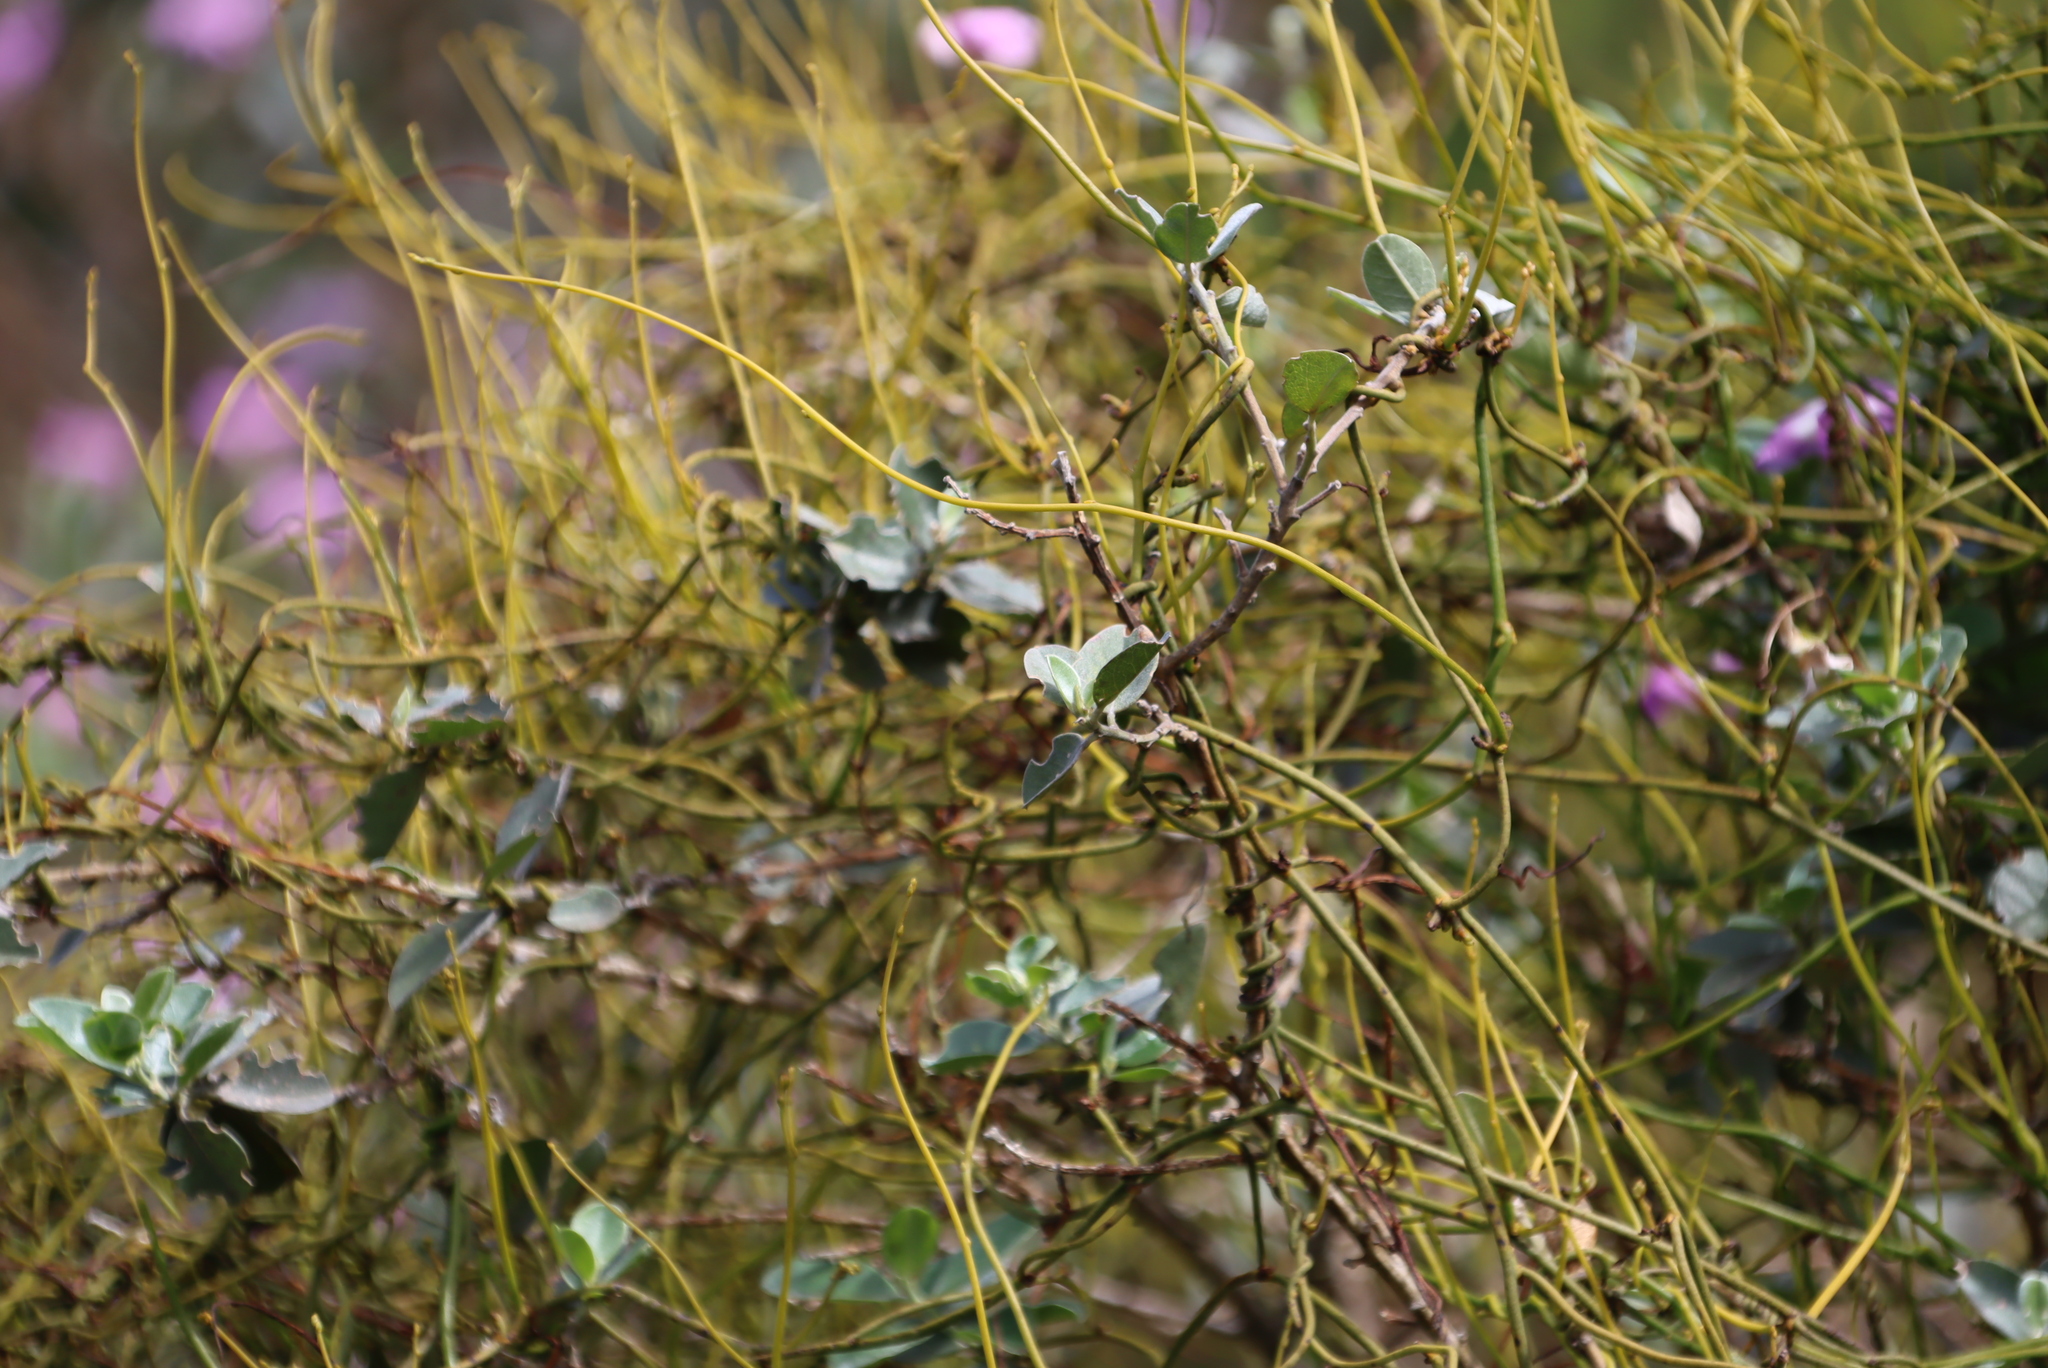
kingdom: Plantae
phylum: Tracheophyta
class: Magnoliopsida
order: Laurales
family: Lauraceae
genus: Cassytha
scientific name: Cassytha ciliolata
